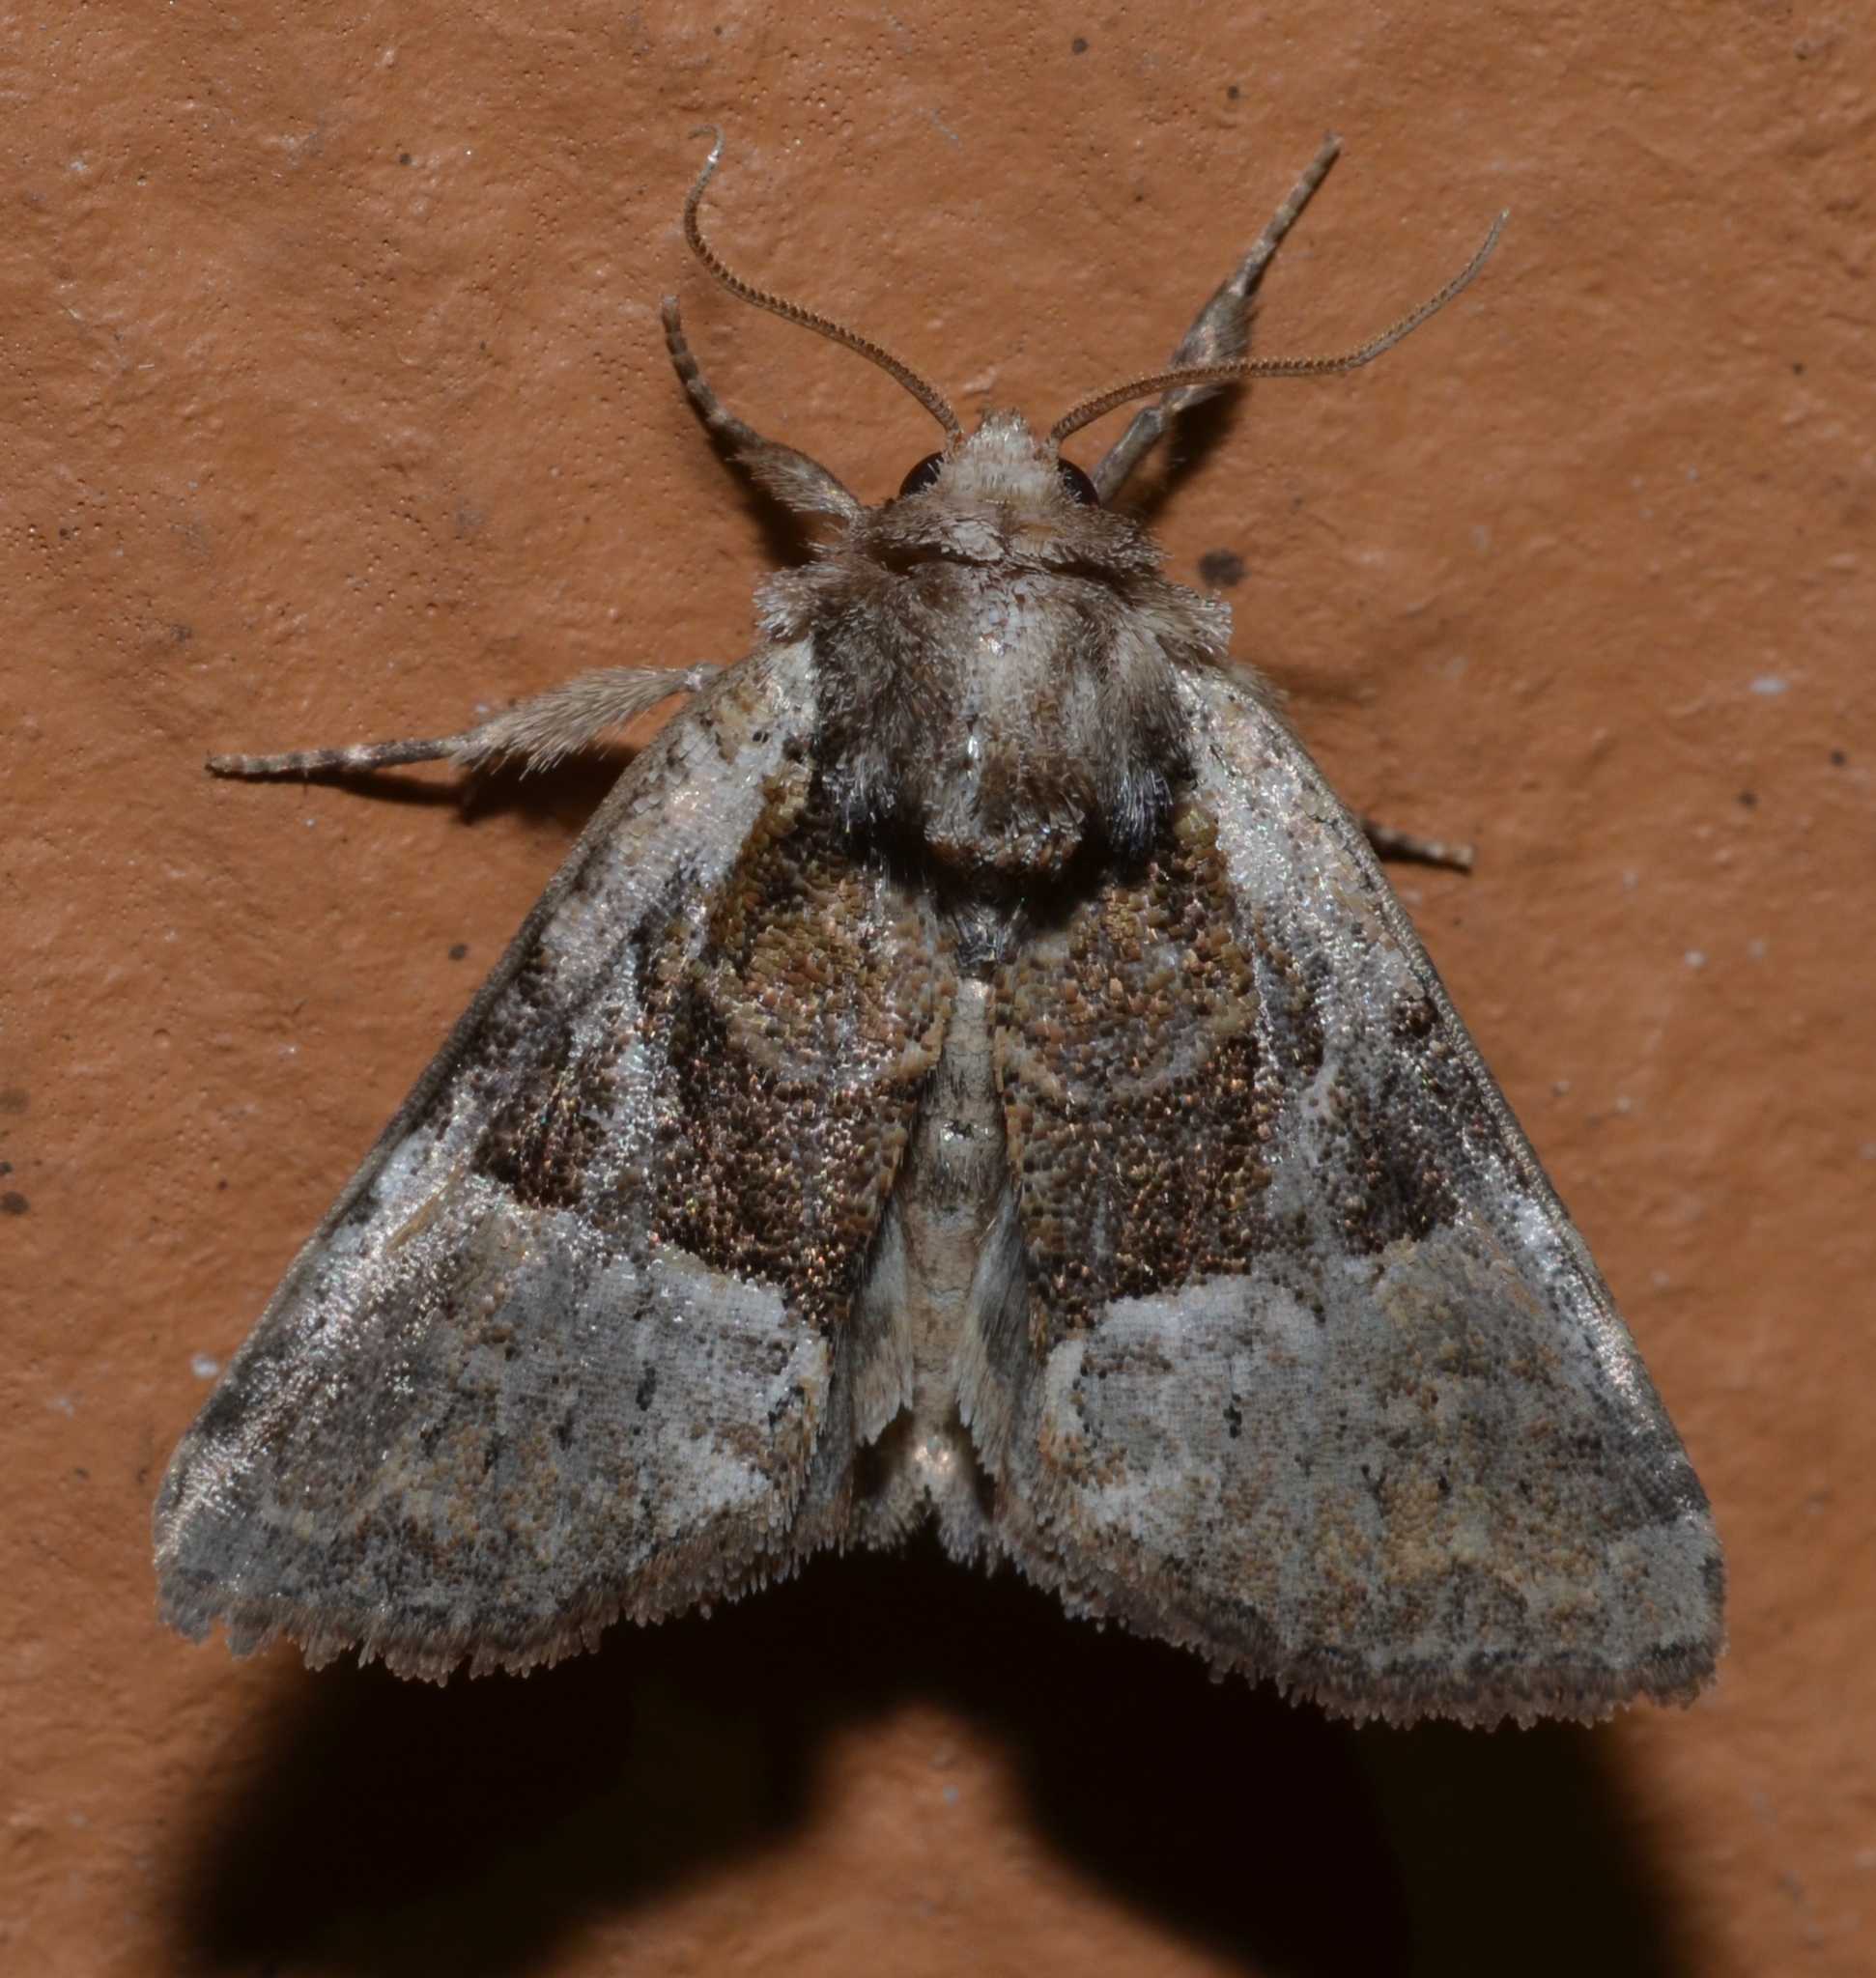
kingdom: Animalia
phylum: Arthropoda
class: Insecta
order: Lepidoptera
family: Noctuidae
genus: Meropleon
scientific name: Meropleon ambifusca
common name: Newman's brocade
